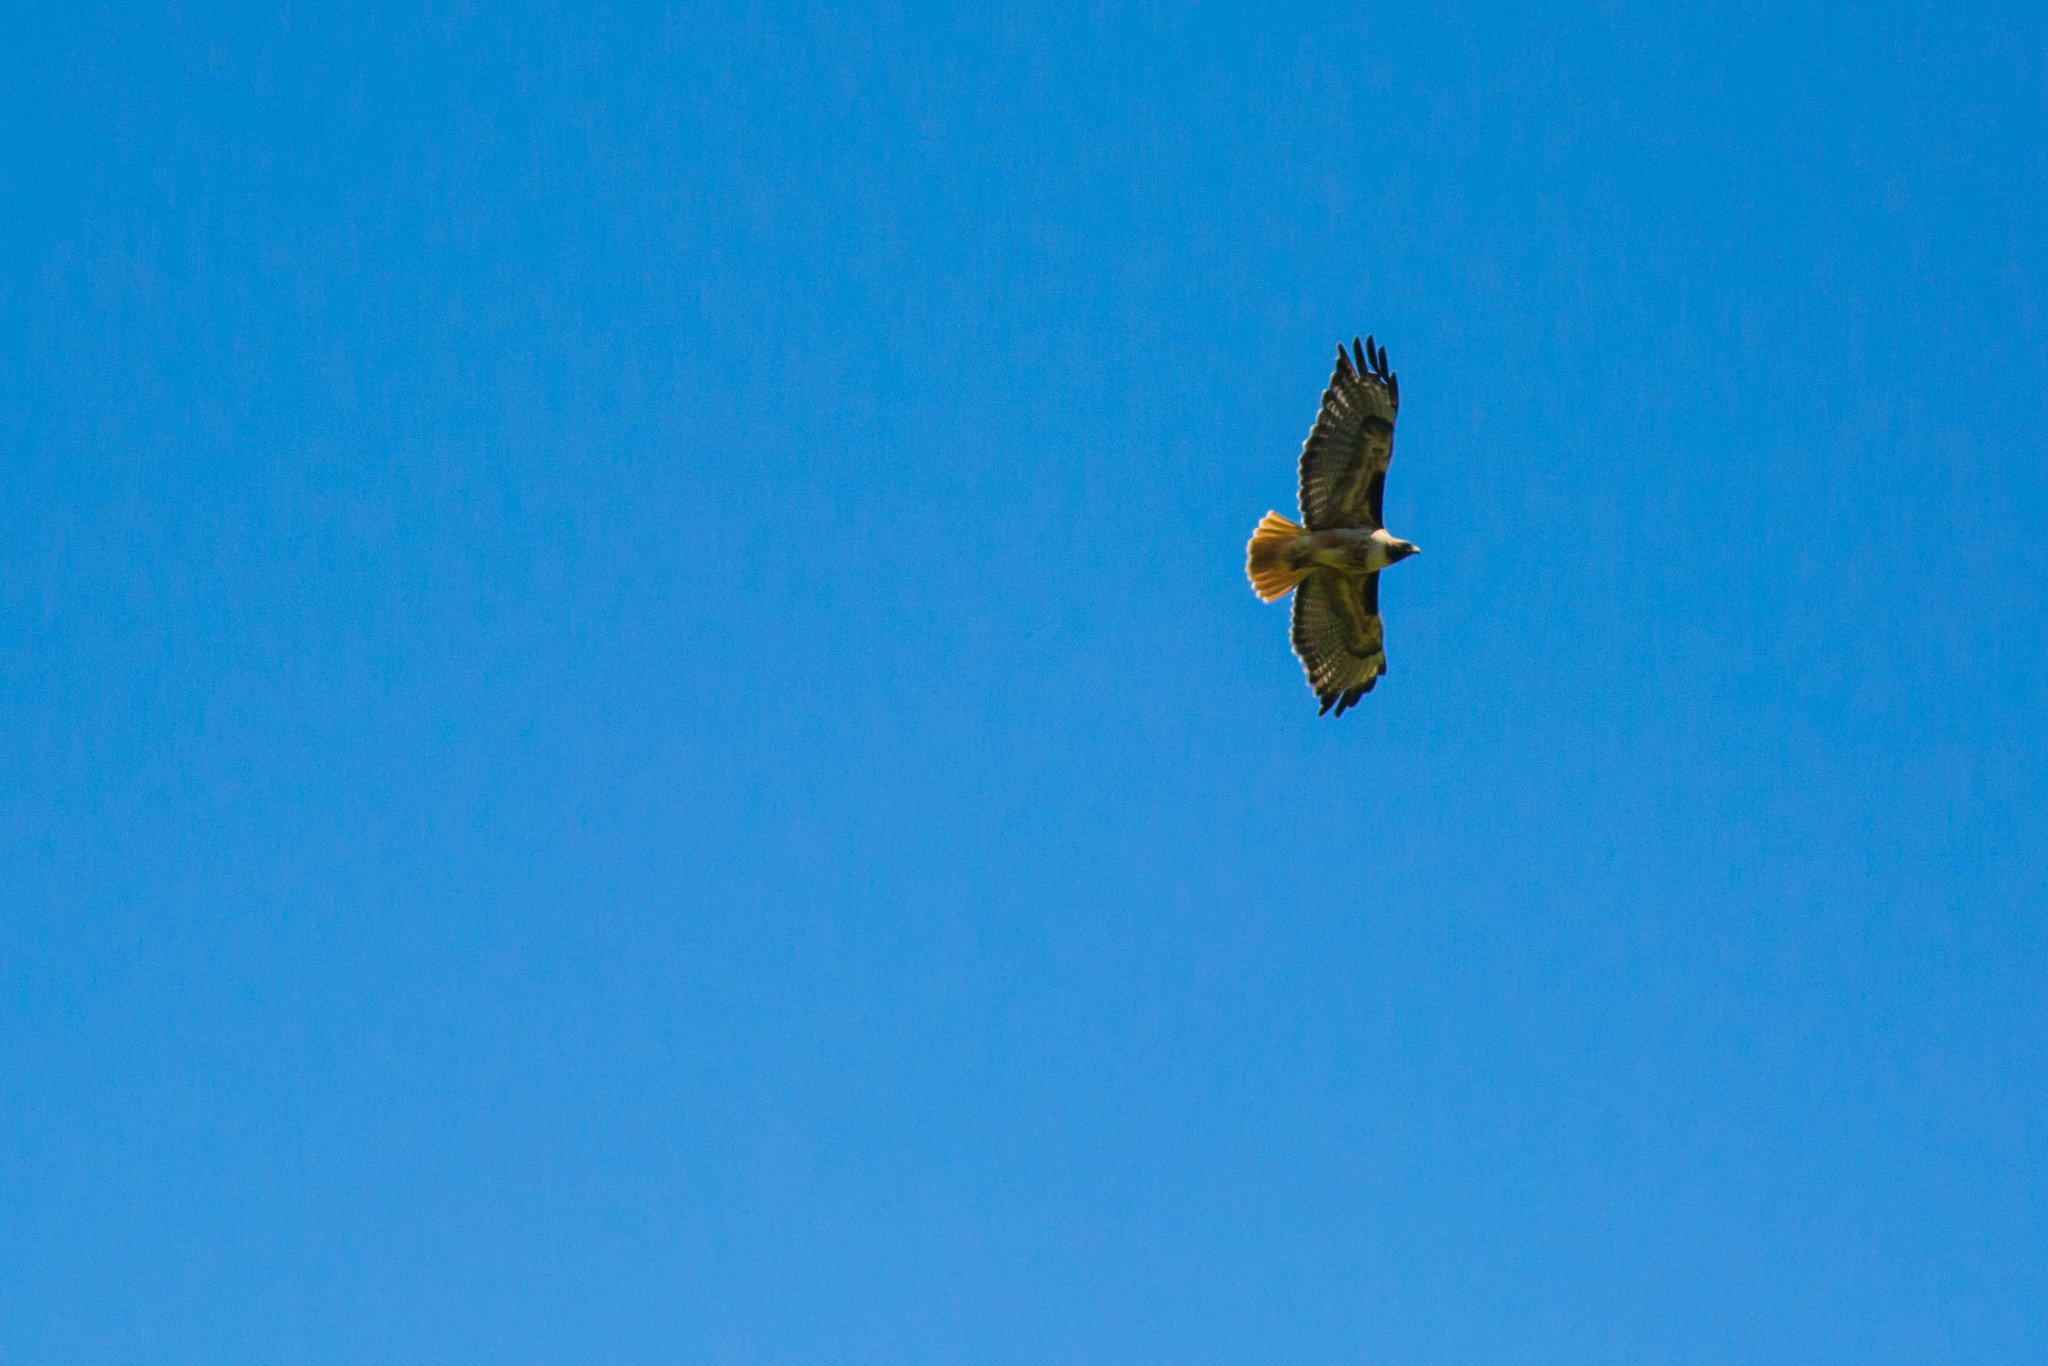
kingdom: Animalia
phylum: Chordata
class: Aves
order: Accipitriformes
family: Accipitridae
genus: Buteo
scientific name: Buteo jamaicensis
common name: Red-tailed hawk
